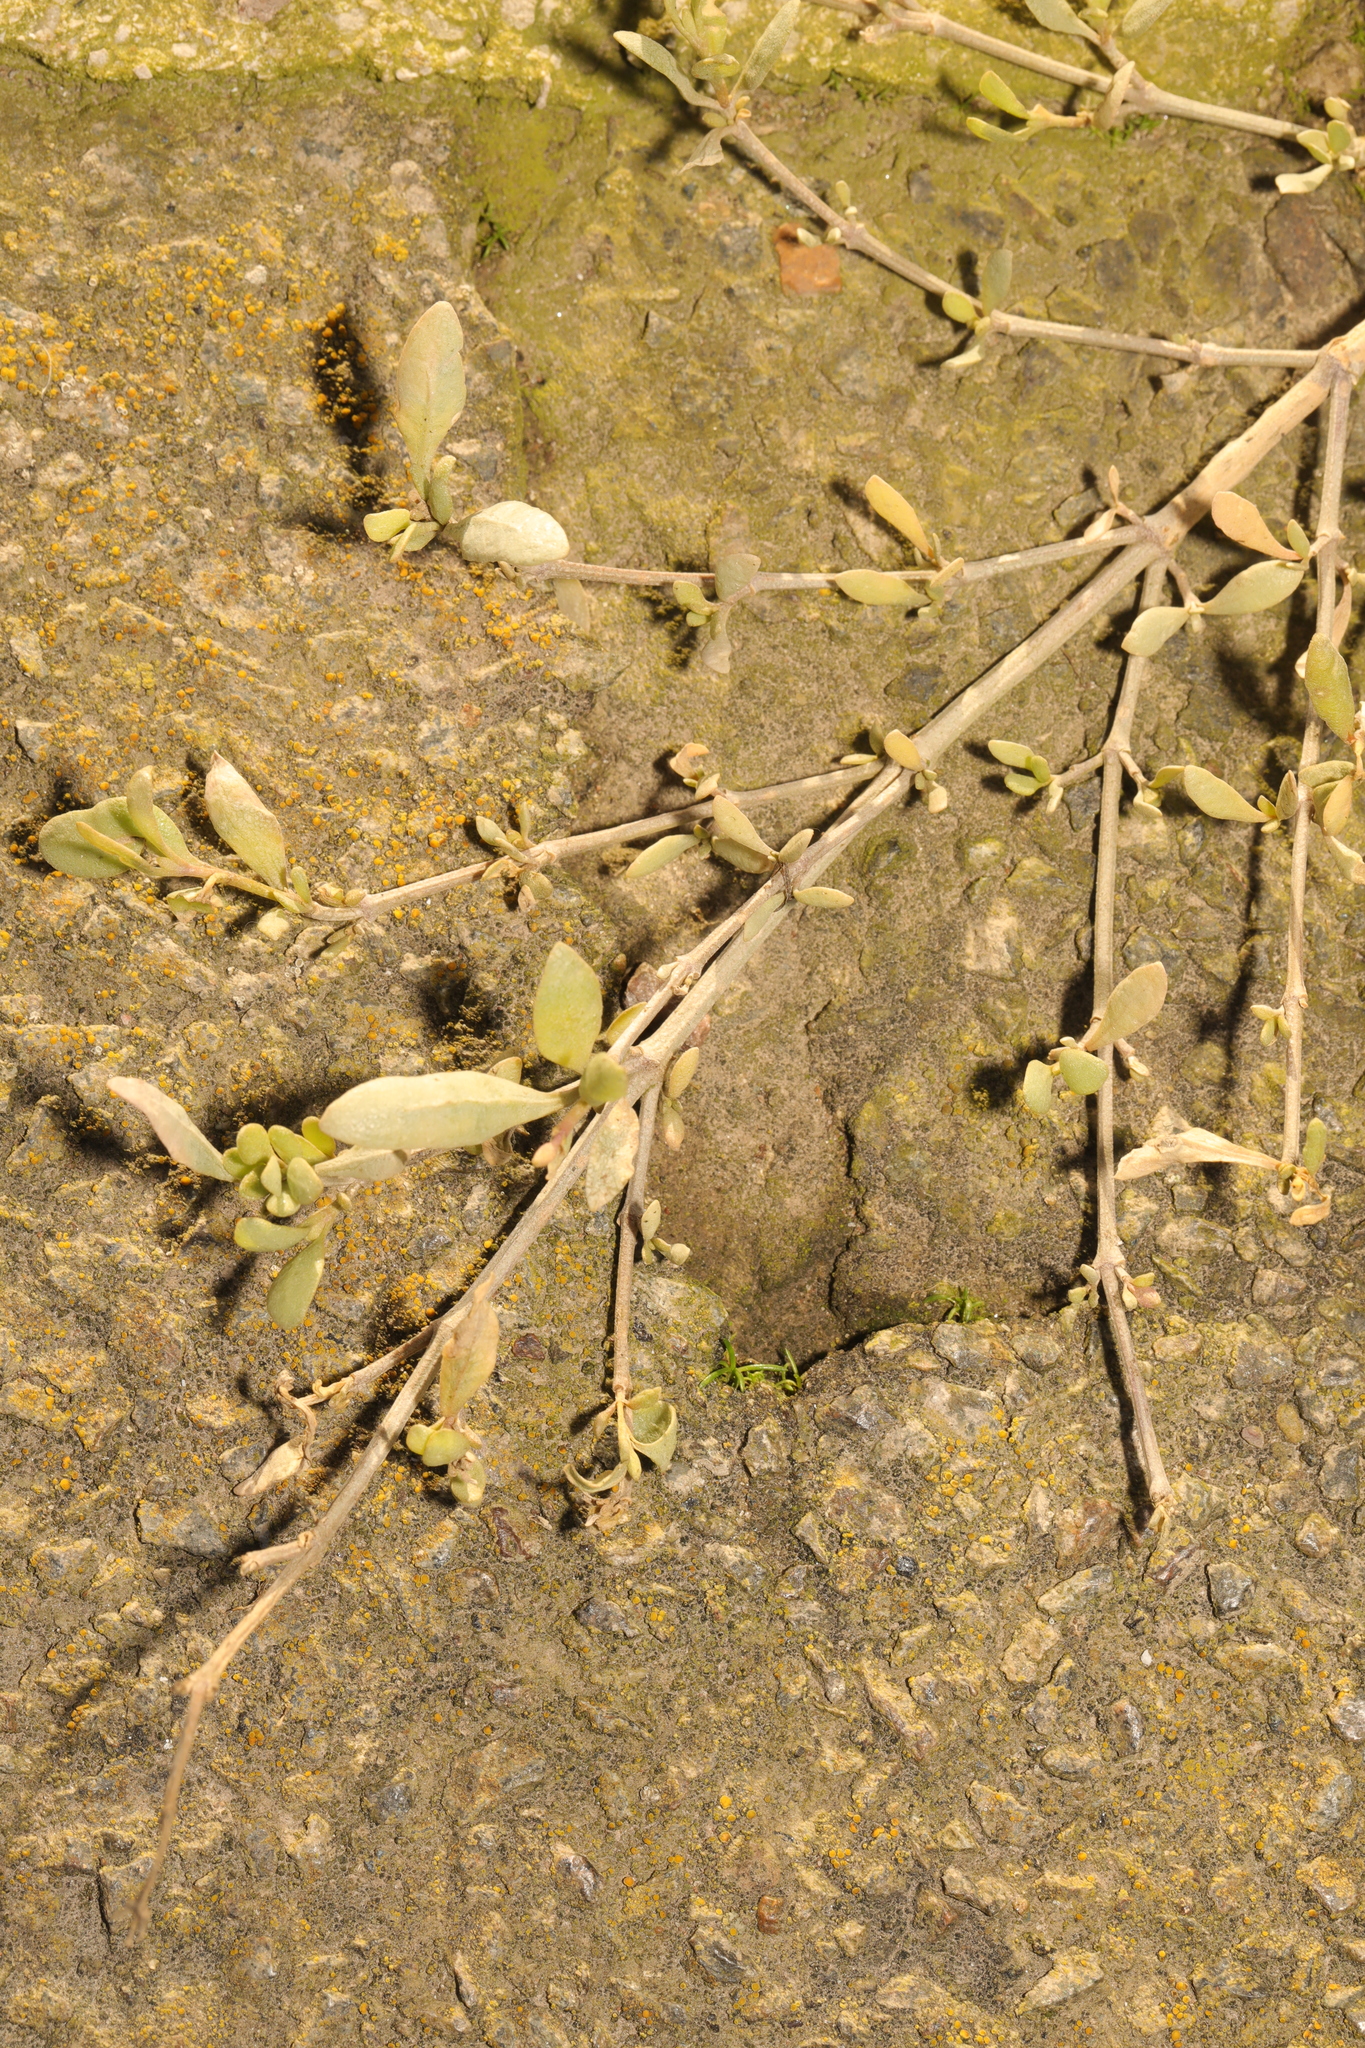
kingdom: Plantae
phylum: Tracheophyta
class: Magnoliopsida
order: Caryophyllales
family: Amaranthaceae
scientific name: Amaranthaceae
